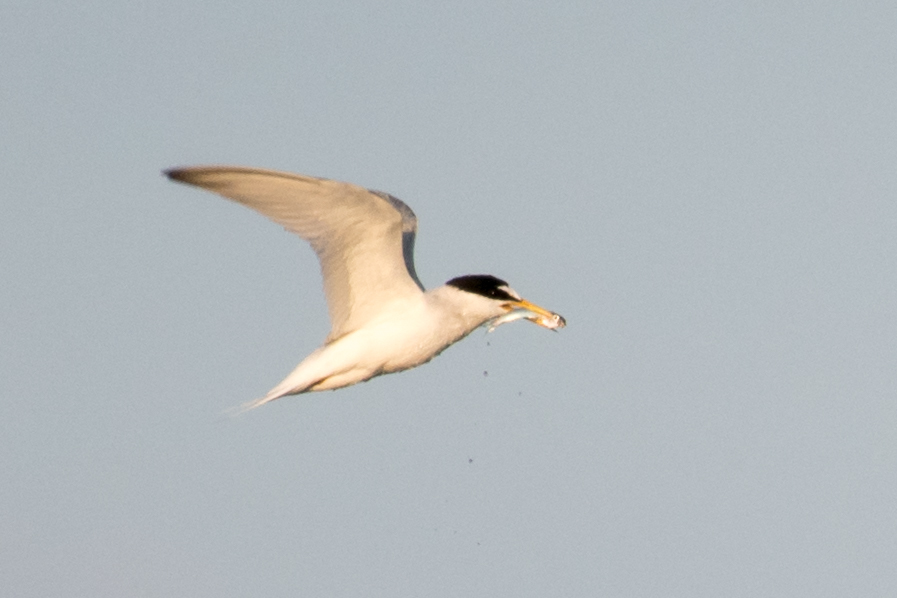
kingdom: Animalia
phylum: Chordata
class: Aves
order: Charadriiformes
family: Laridae
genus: Sternula
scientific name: Sternula albifrons
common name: Little tern
